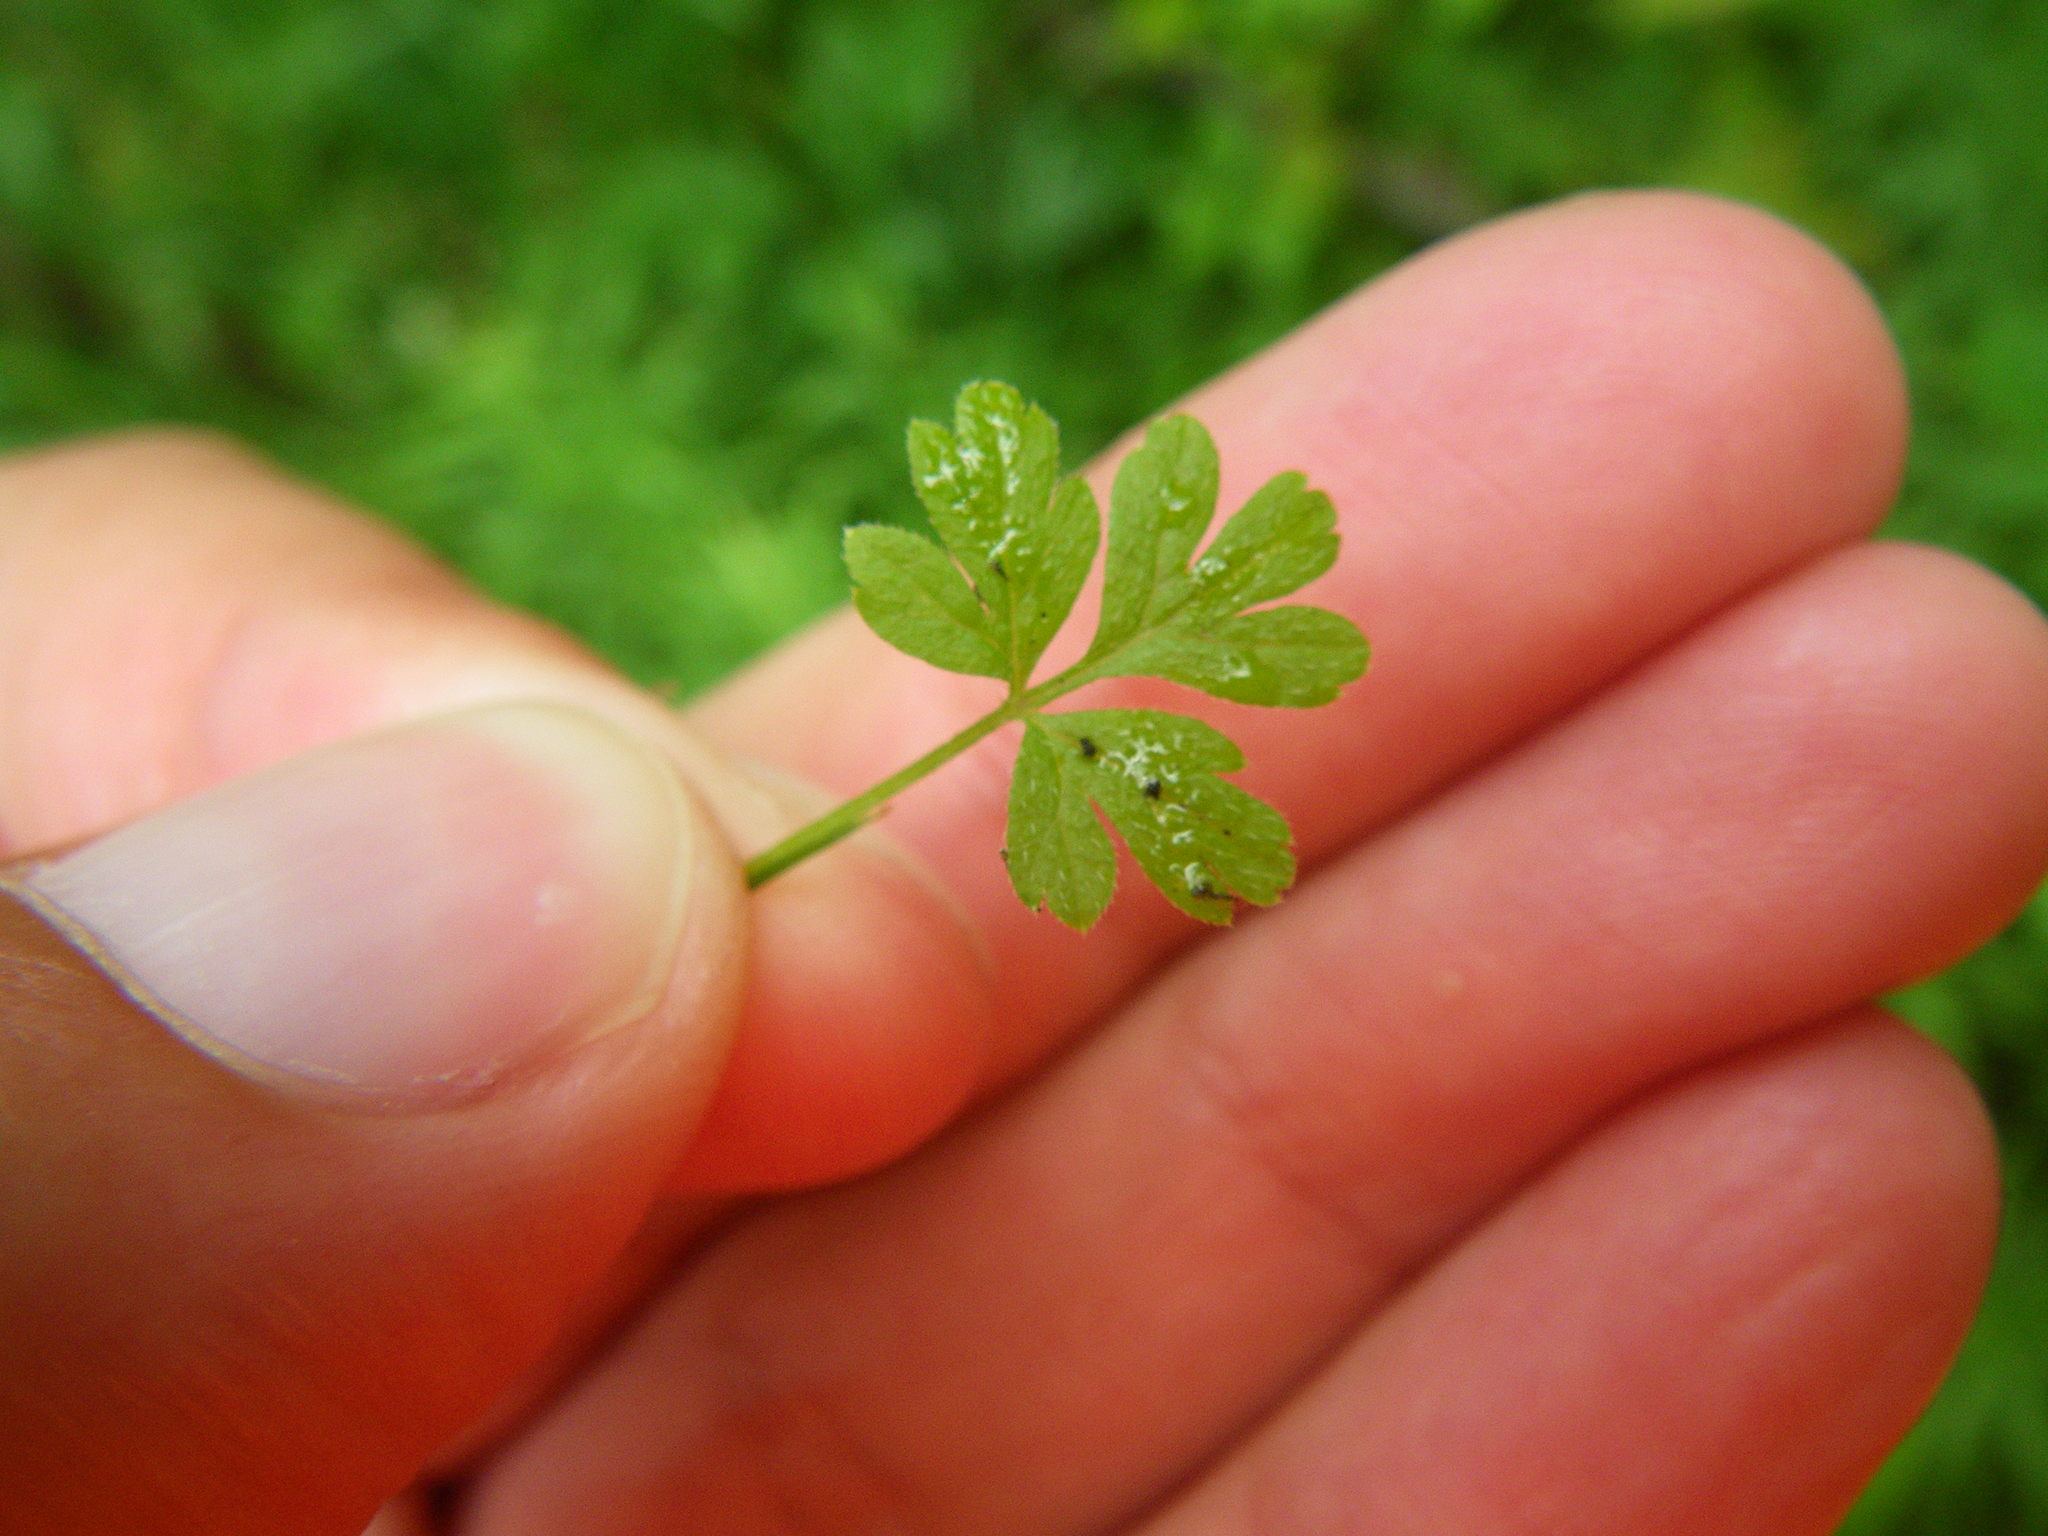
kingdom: Plantae
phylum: Tracheophyta
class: Magnoliopsida
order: Apiales
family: Apiaceae
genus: Torilis
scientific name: Torilis japonica
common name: Upright hedge-parsley
